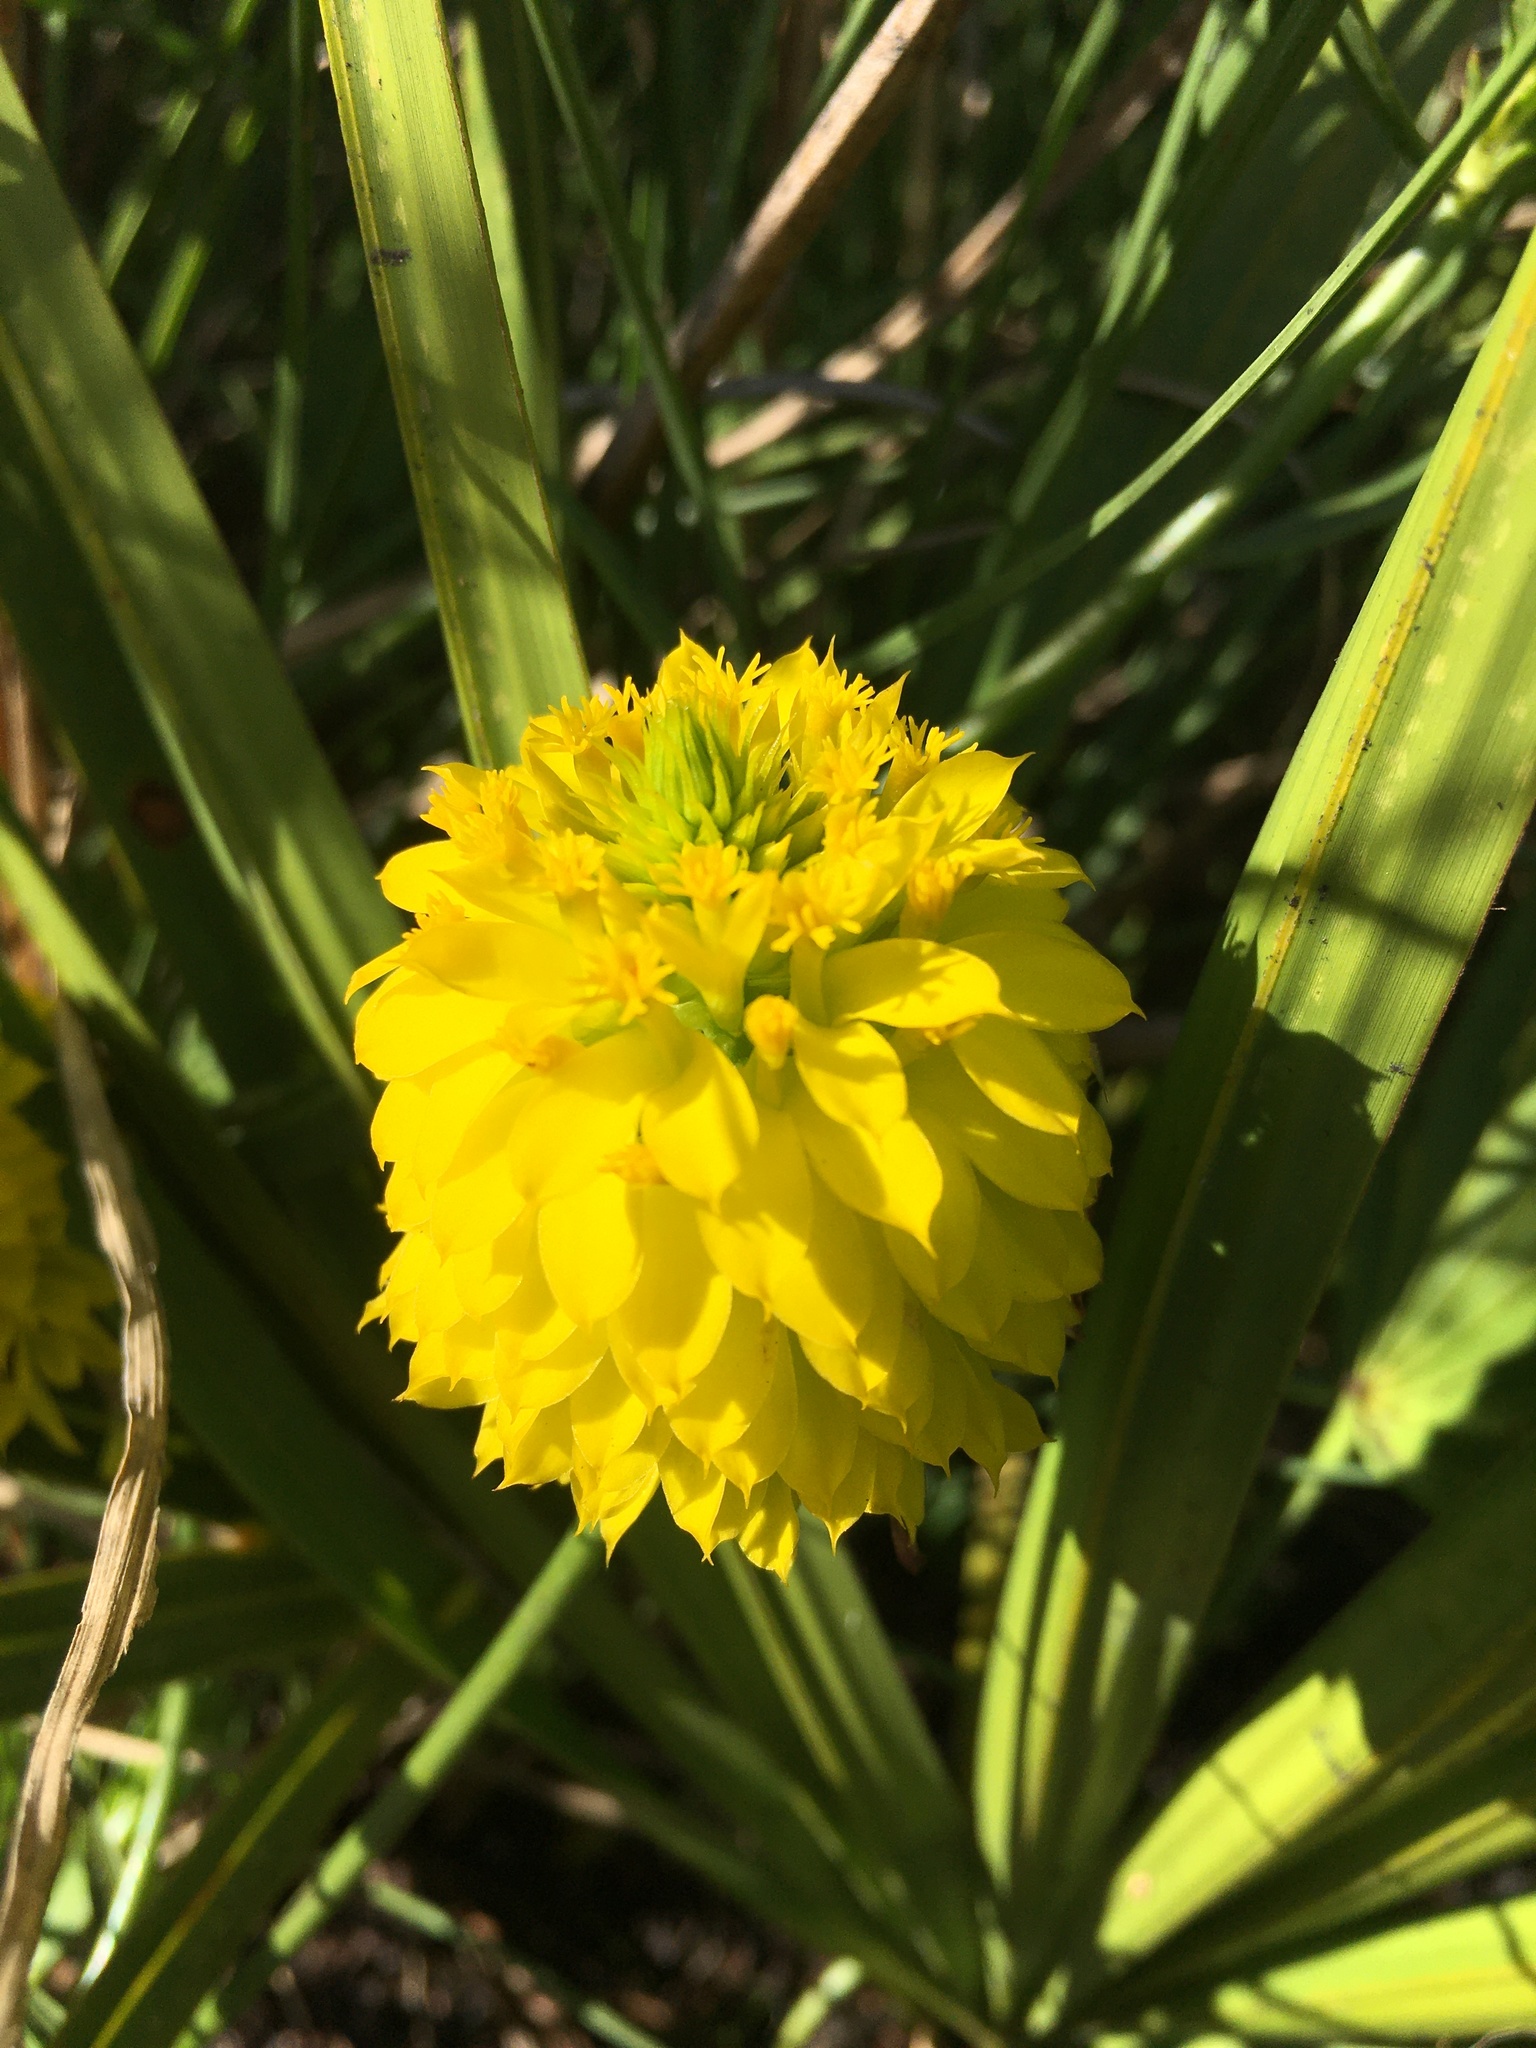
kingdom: Plantae
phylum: Tracheophyta
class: Magnoliopsida
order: Fabales
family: Polygalaceae
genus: Polygala
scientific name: Polygala rugelii
